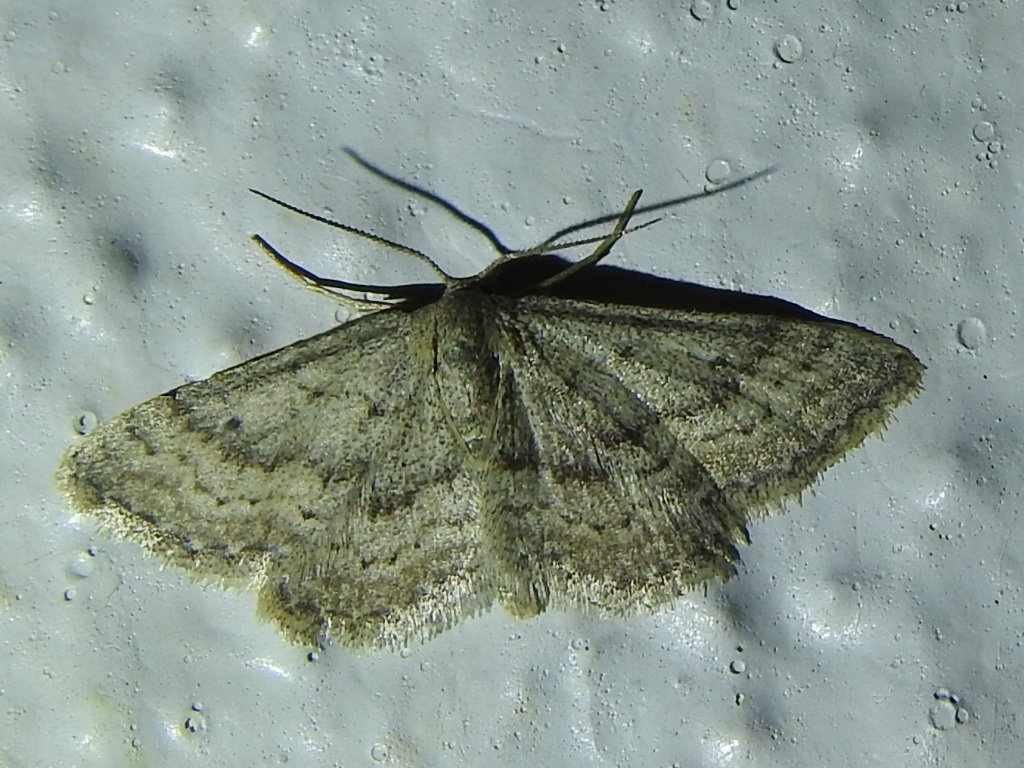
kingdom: Animalia
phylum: Arthropoda
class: Insecta
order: Lepidoptera
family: Geometridae
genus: Lobocleta
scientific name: Lobocleta ossularia
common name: Drab brown wave
